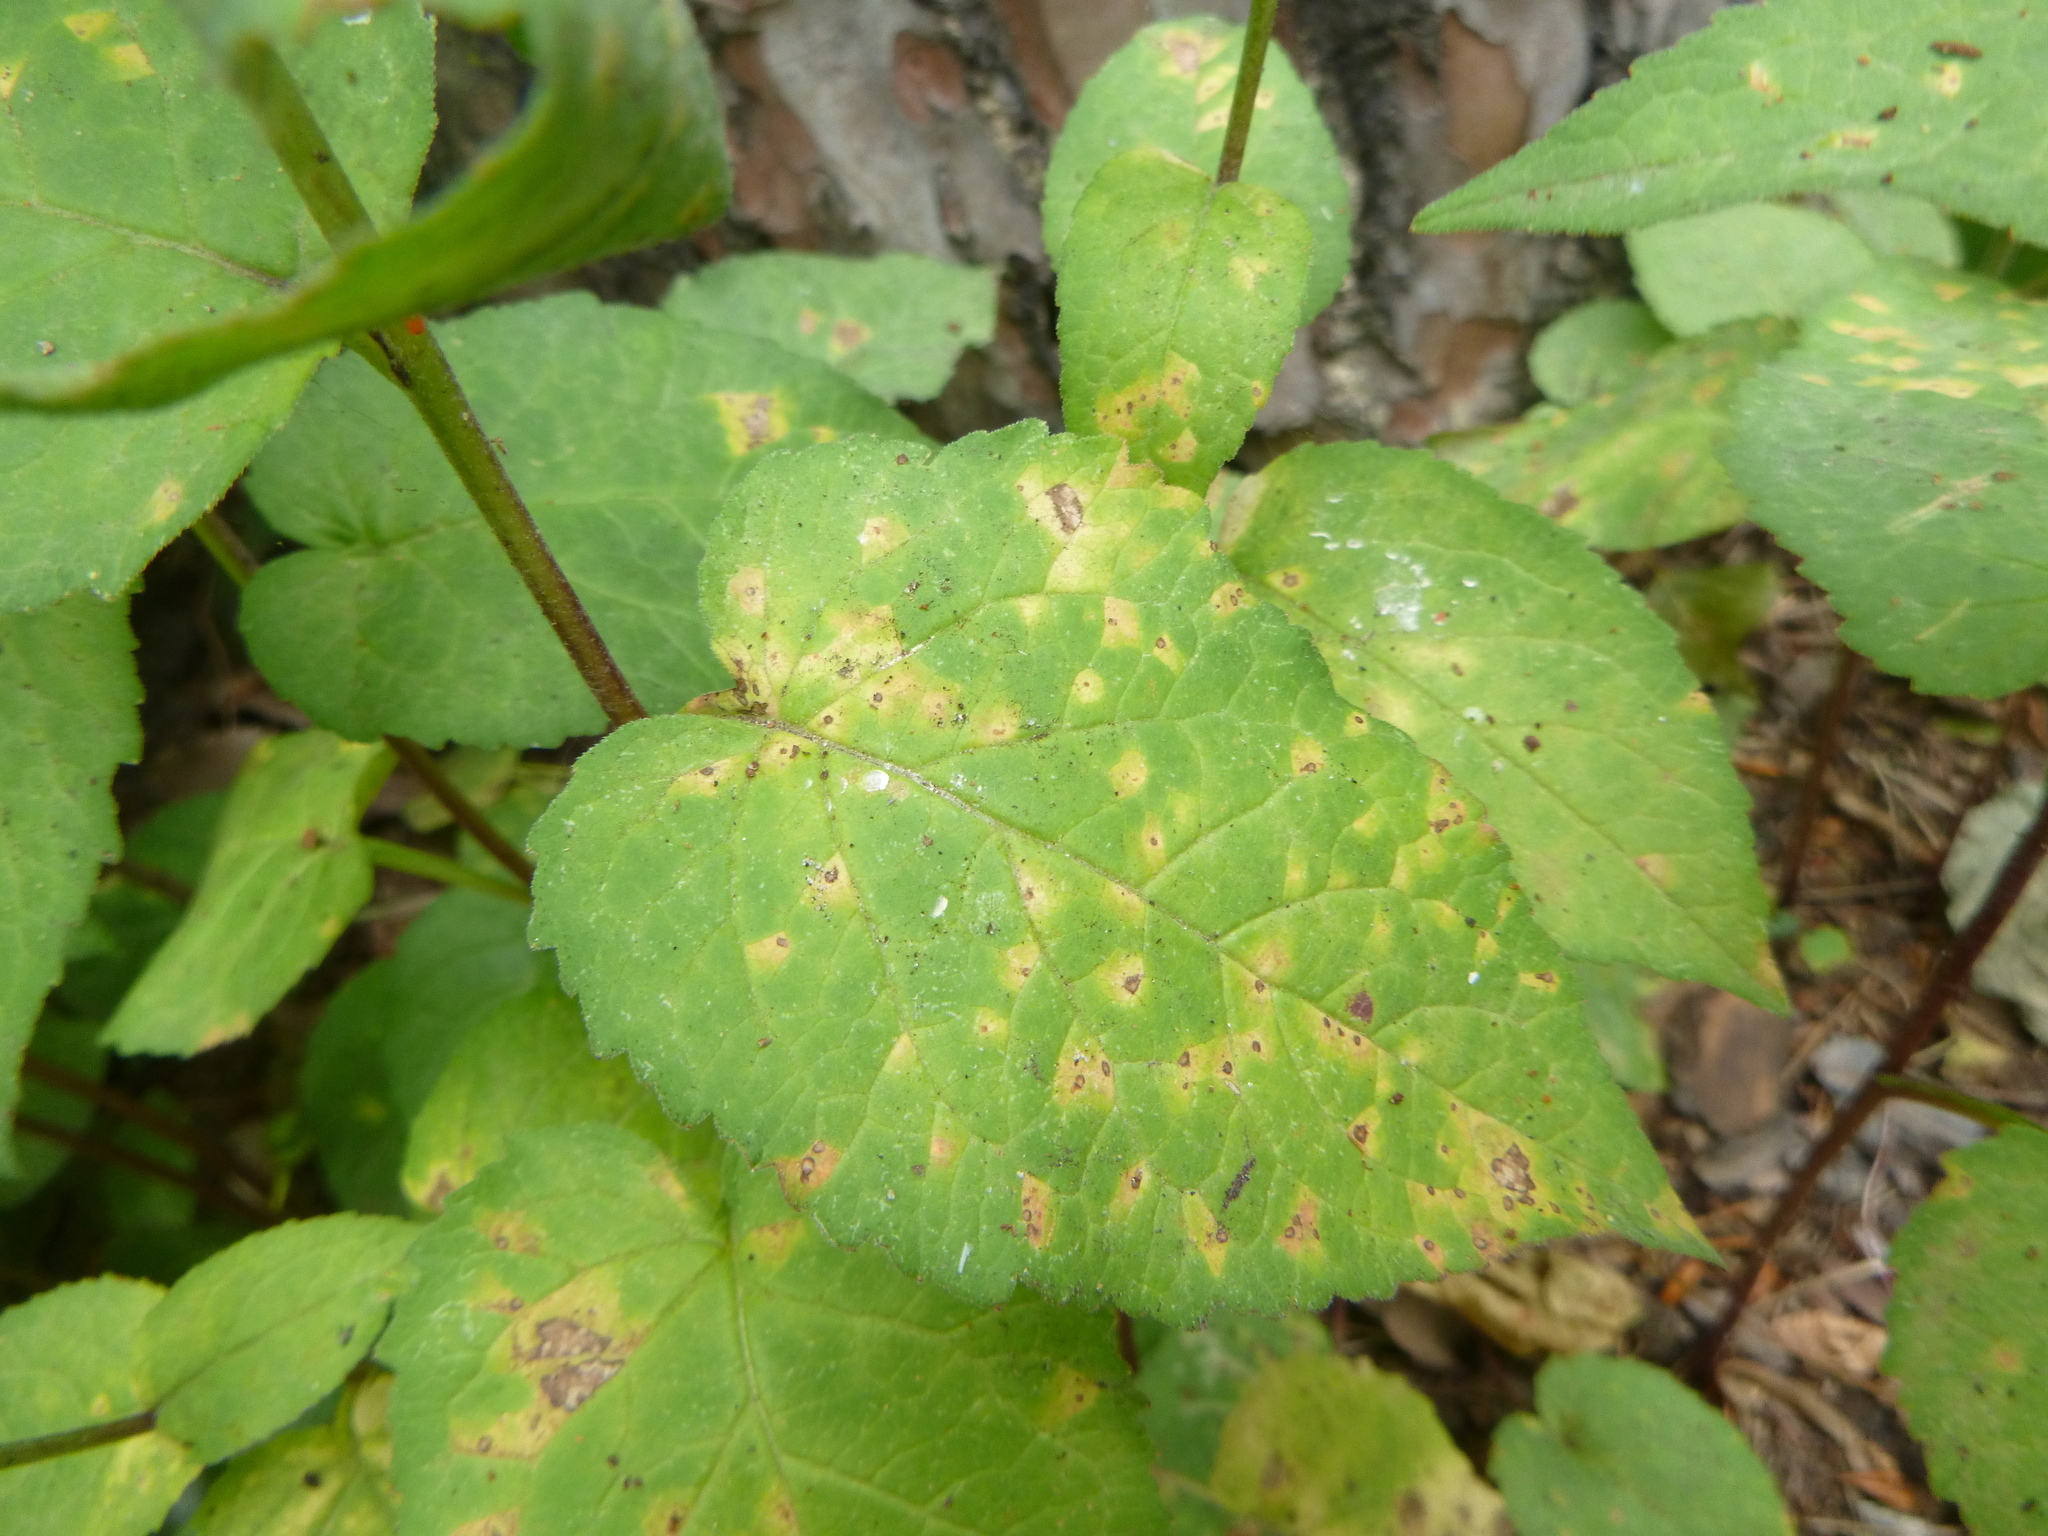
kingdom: Plantae
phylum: Tracheophyta
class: Magnoliopsida
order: Asterales
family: Campanulaceae
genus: Campanula
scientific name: Campanula rapunculoides
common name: Creeping bellflower
